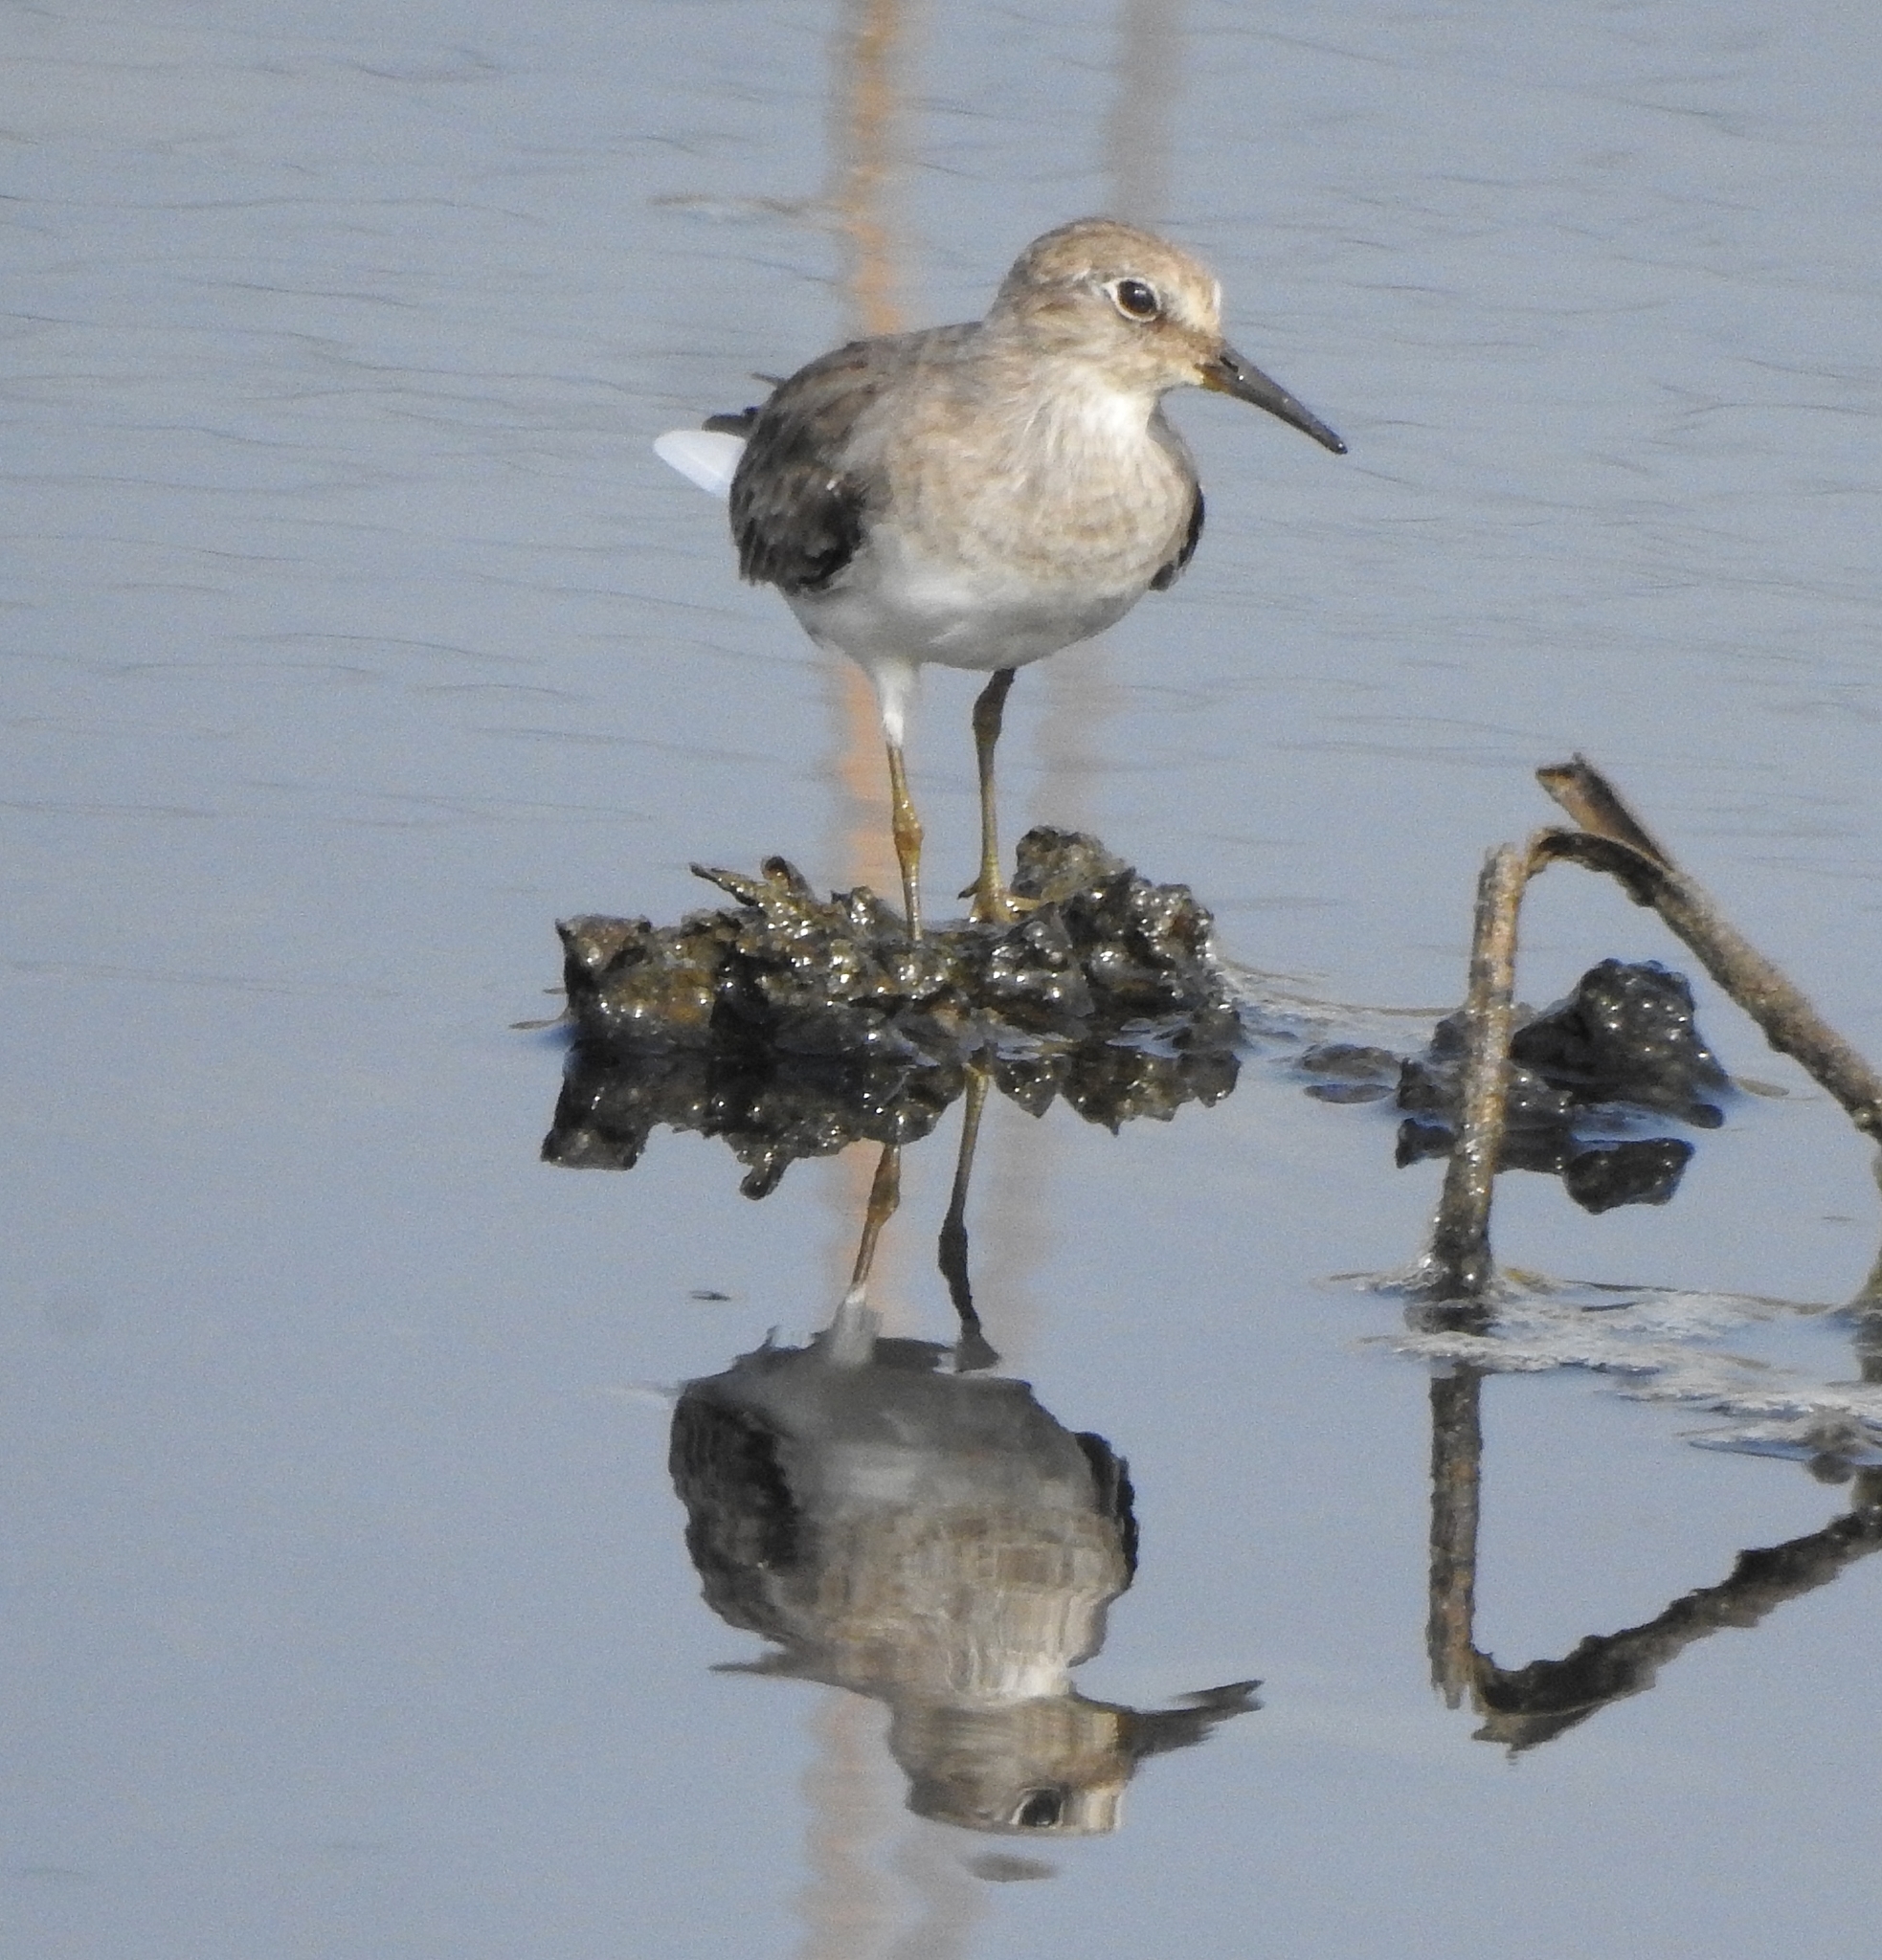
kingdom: Animalia
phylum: Chordata
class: Aves
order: Charadriiformes
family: Scolopacidae
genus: Calidris
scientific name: Calidris temminckii
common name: Temminck's stint
